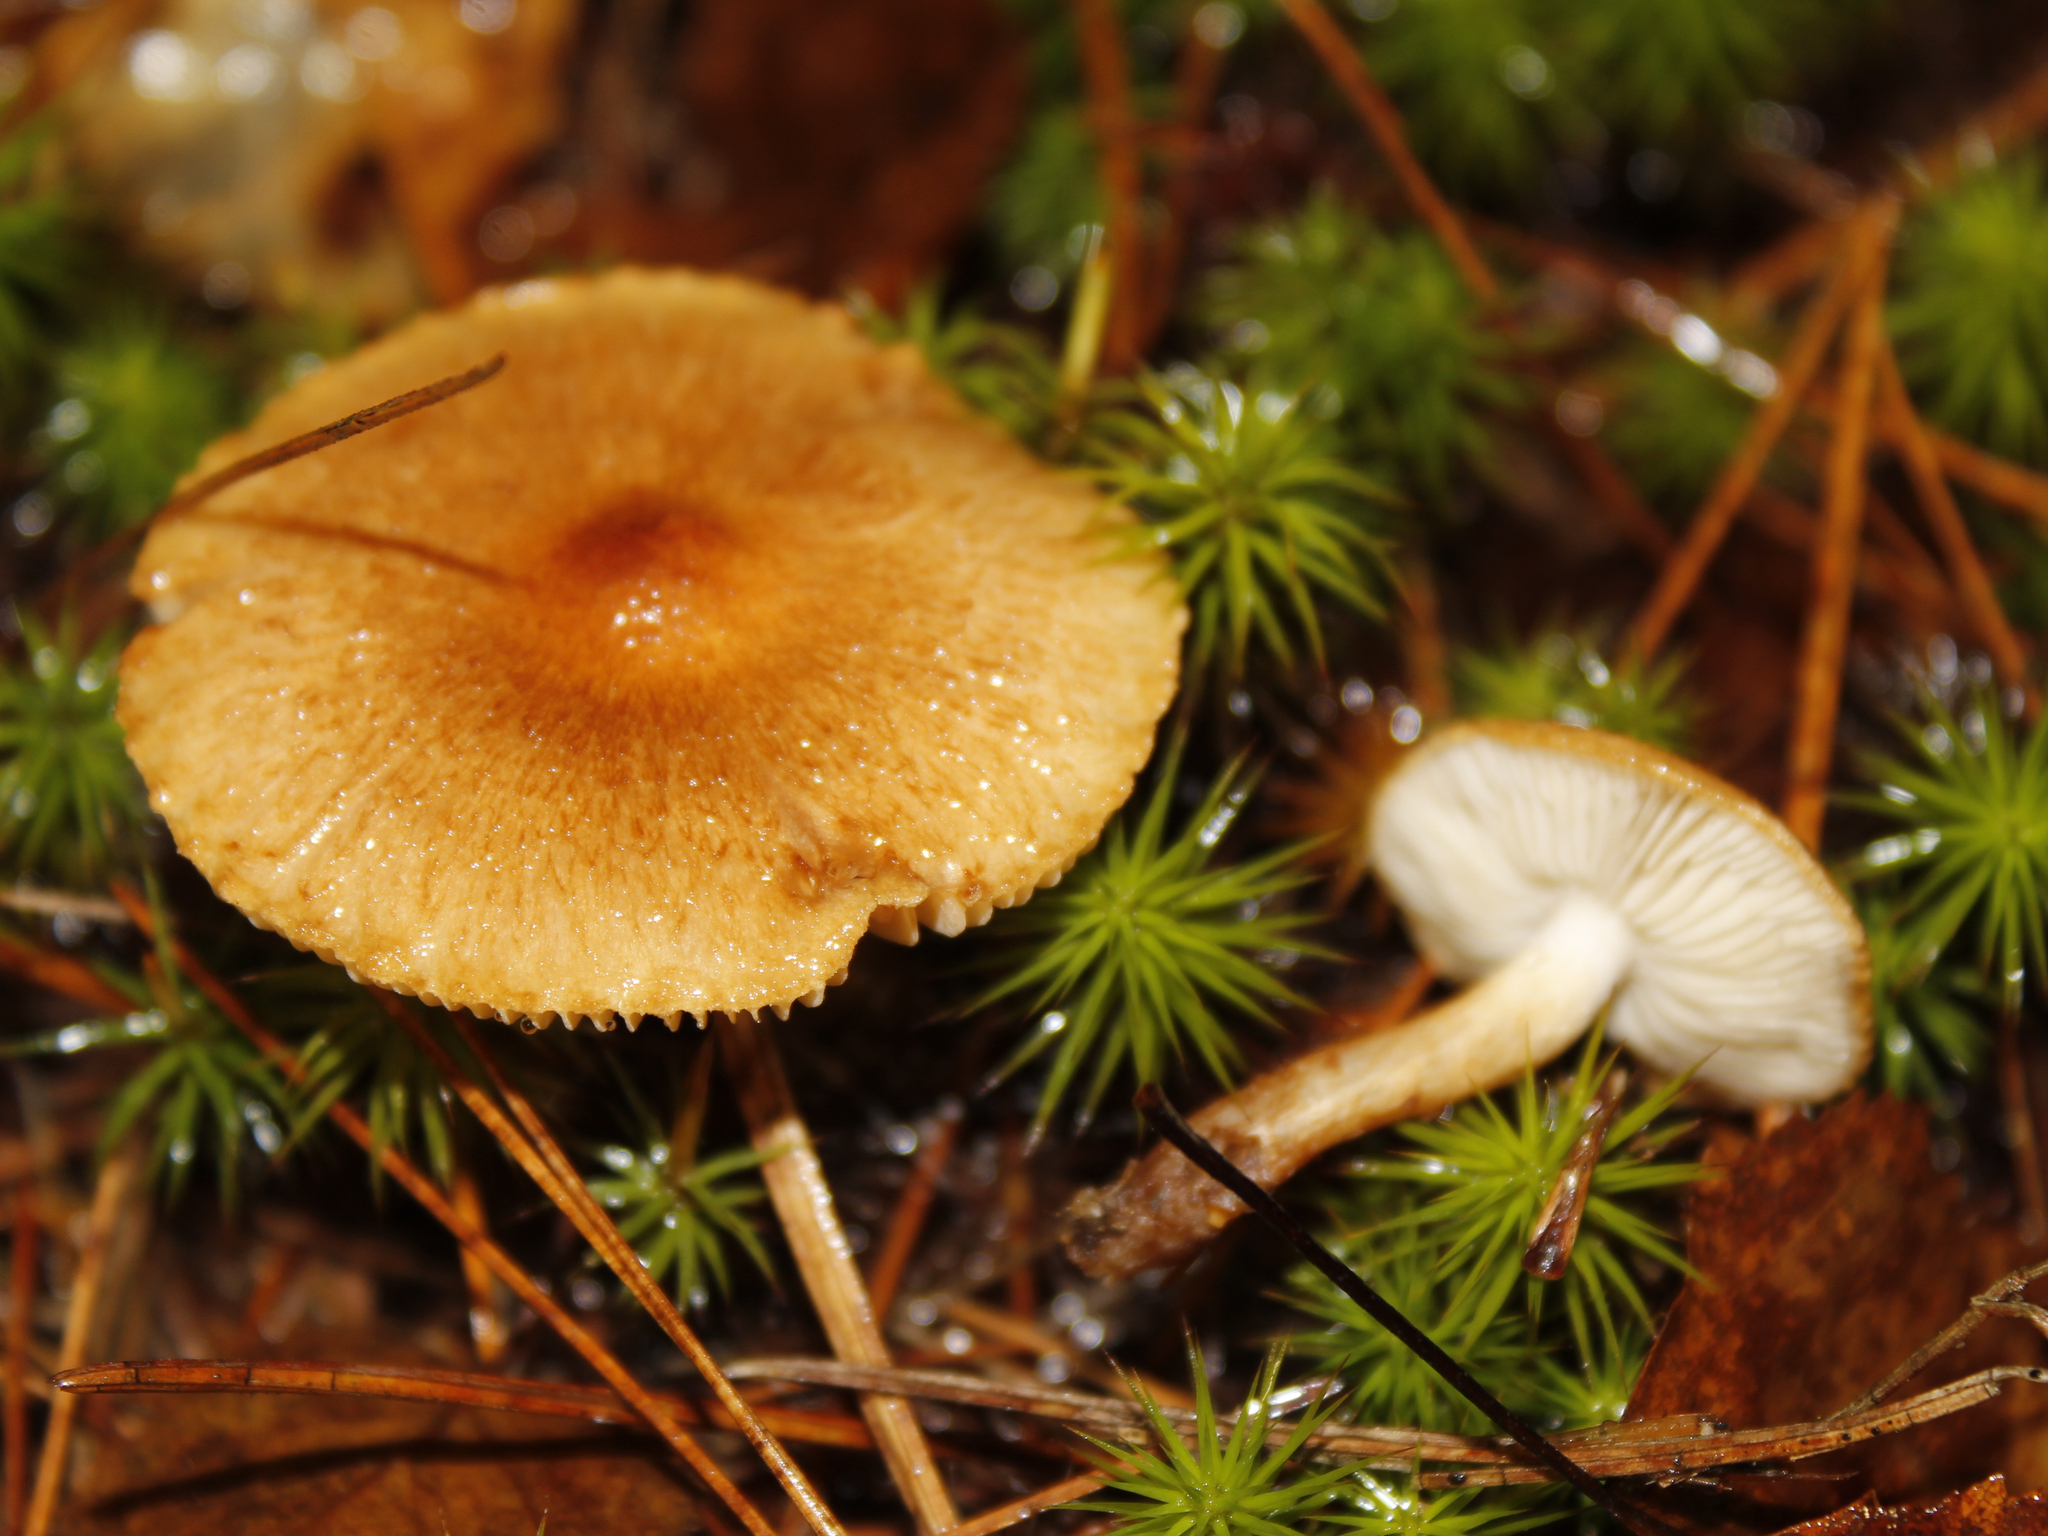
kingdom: Fungi
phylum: Basidiomycota
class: Agaricomycetes
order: Agaricales
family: Tricholomataceae
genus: Tricholoma
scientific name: Tricholoma vaccinum
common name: Scaly knight
